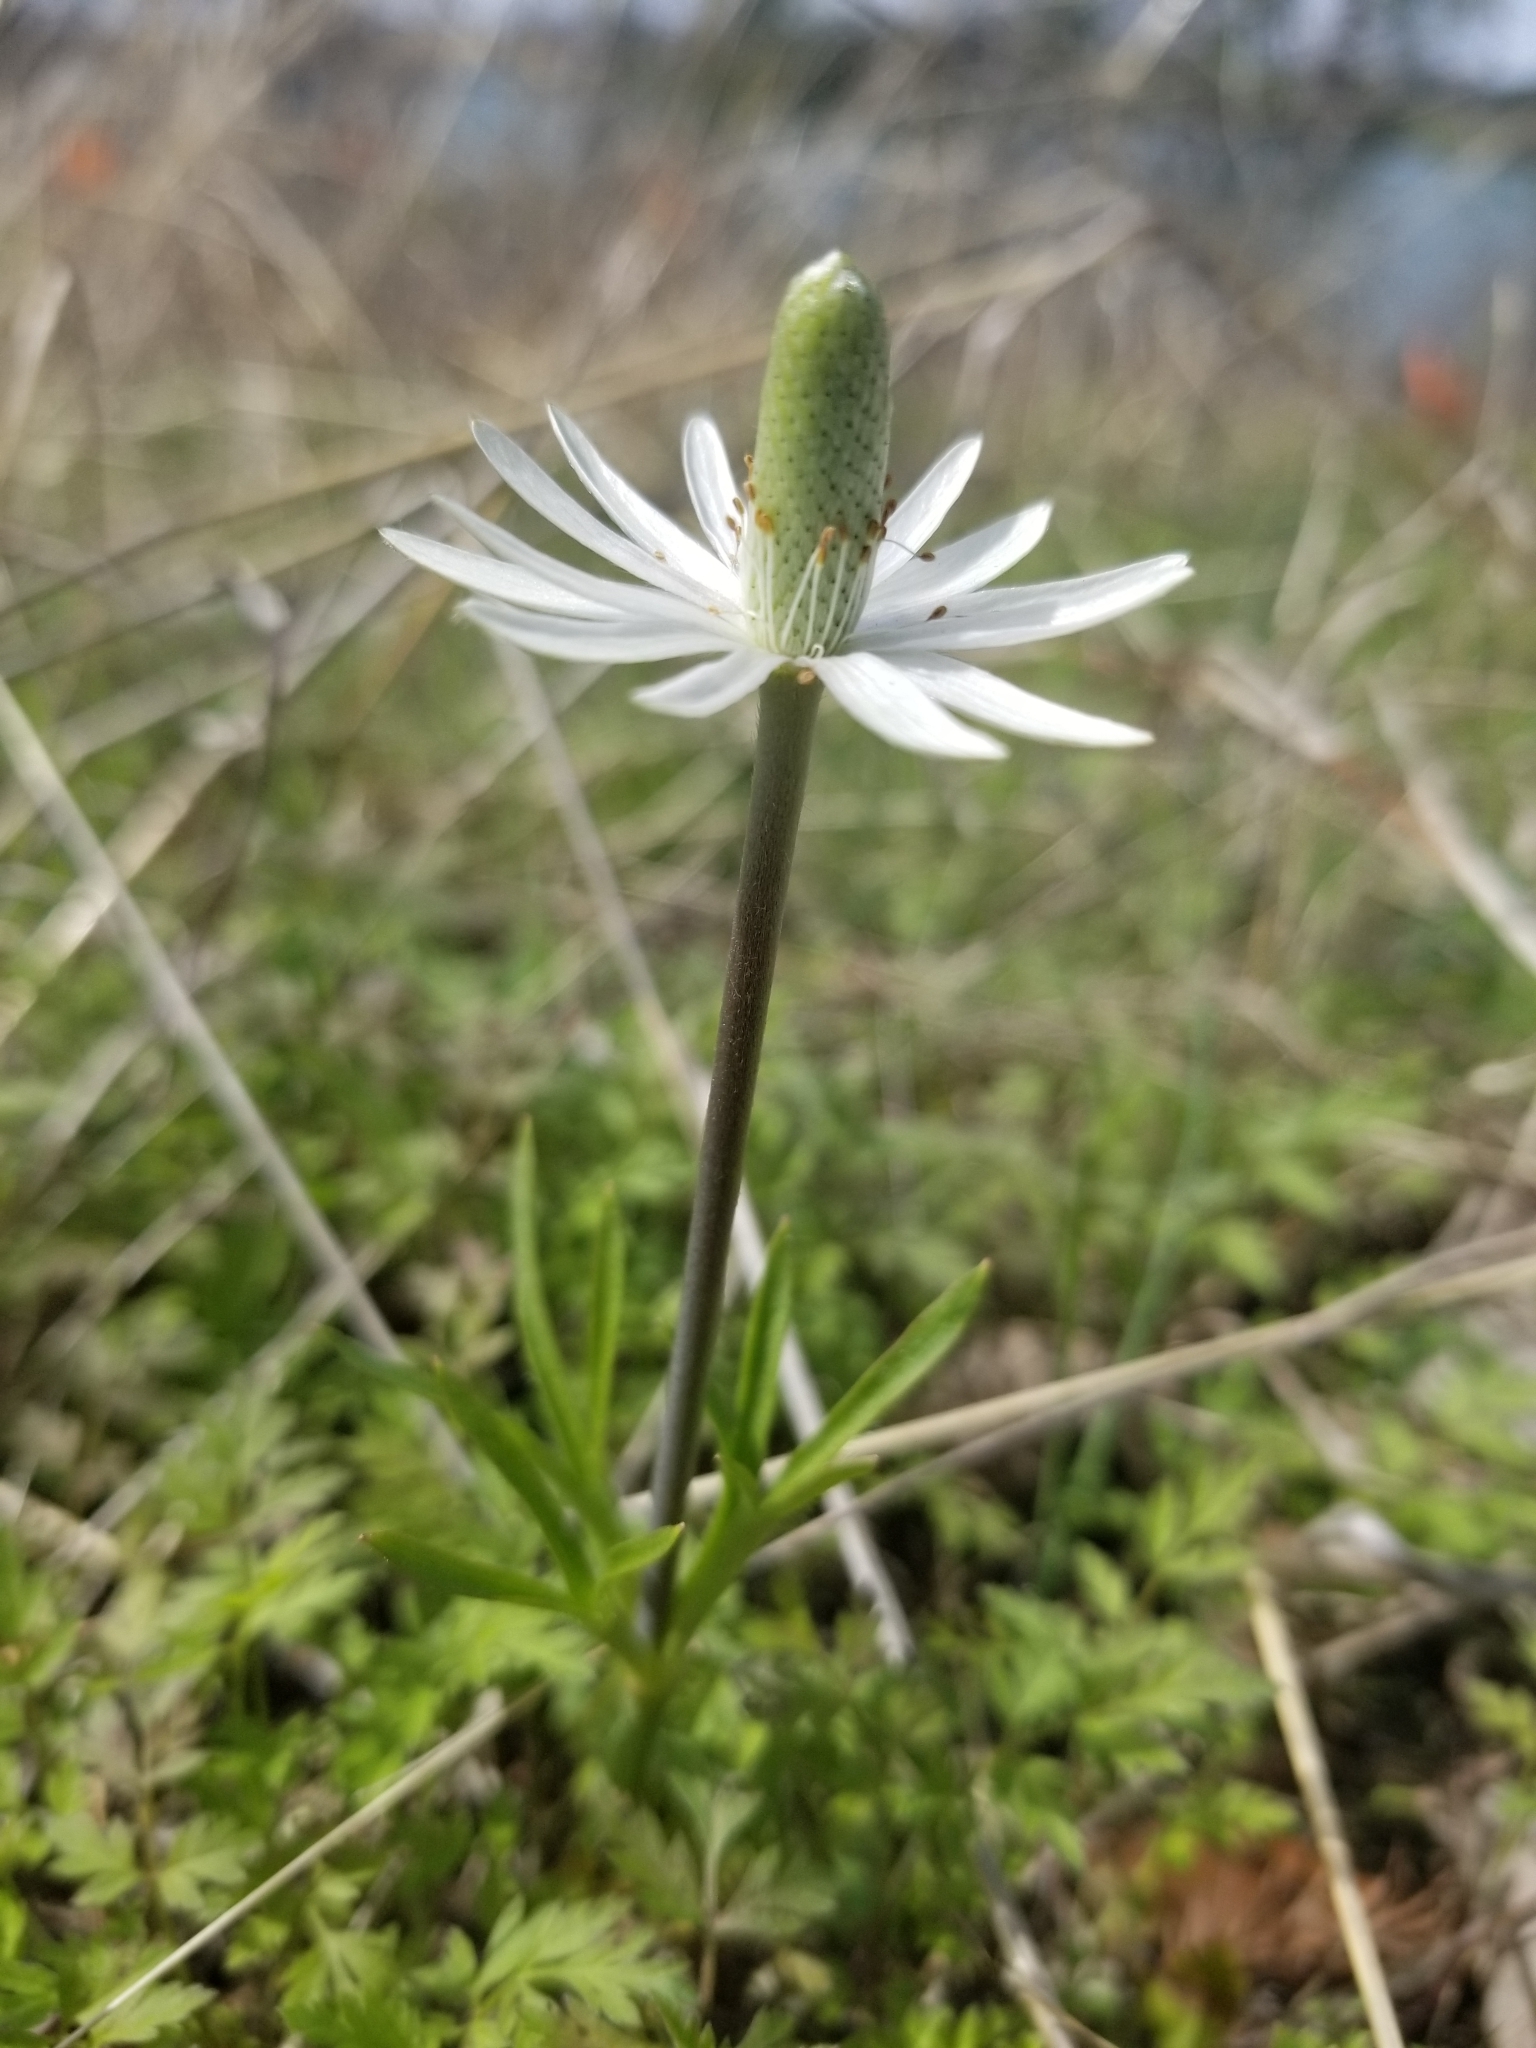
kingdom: Plantae
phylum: Tracheophyta
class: Magnoliopsida
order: Ranunculales
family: Ranunculaceae
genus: Anemone
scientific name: Anemone berlandieri
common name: Ten-petal anemone
